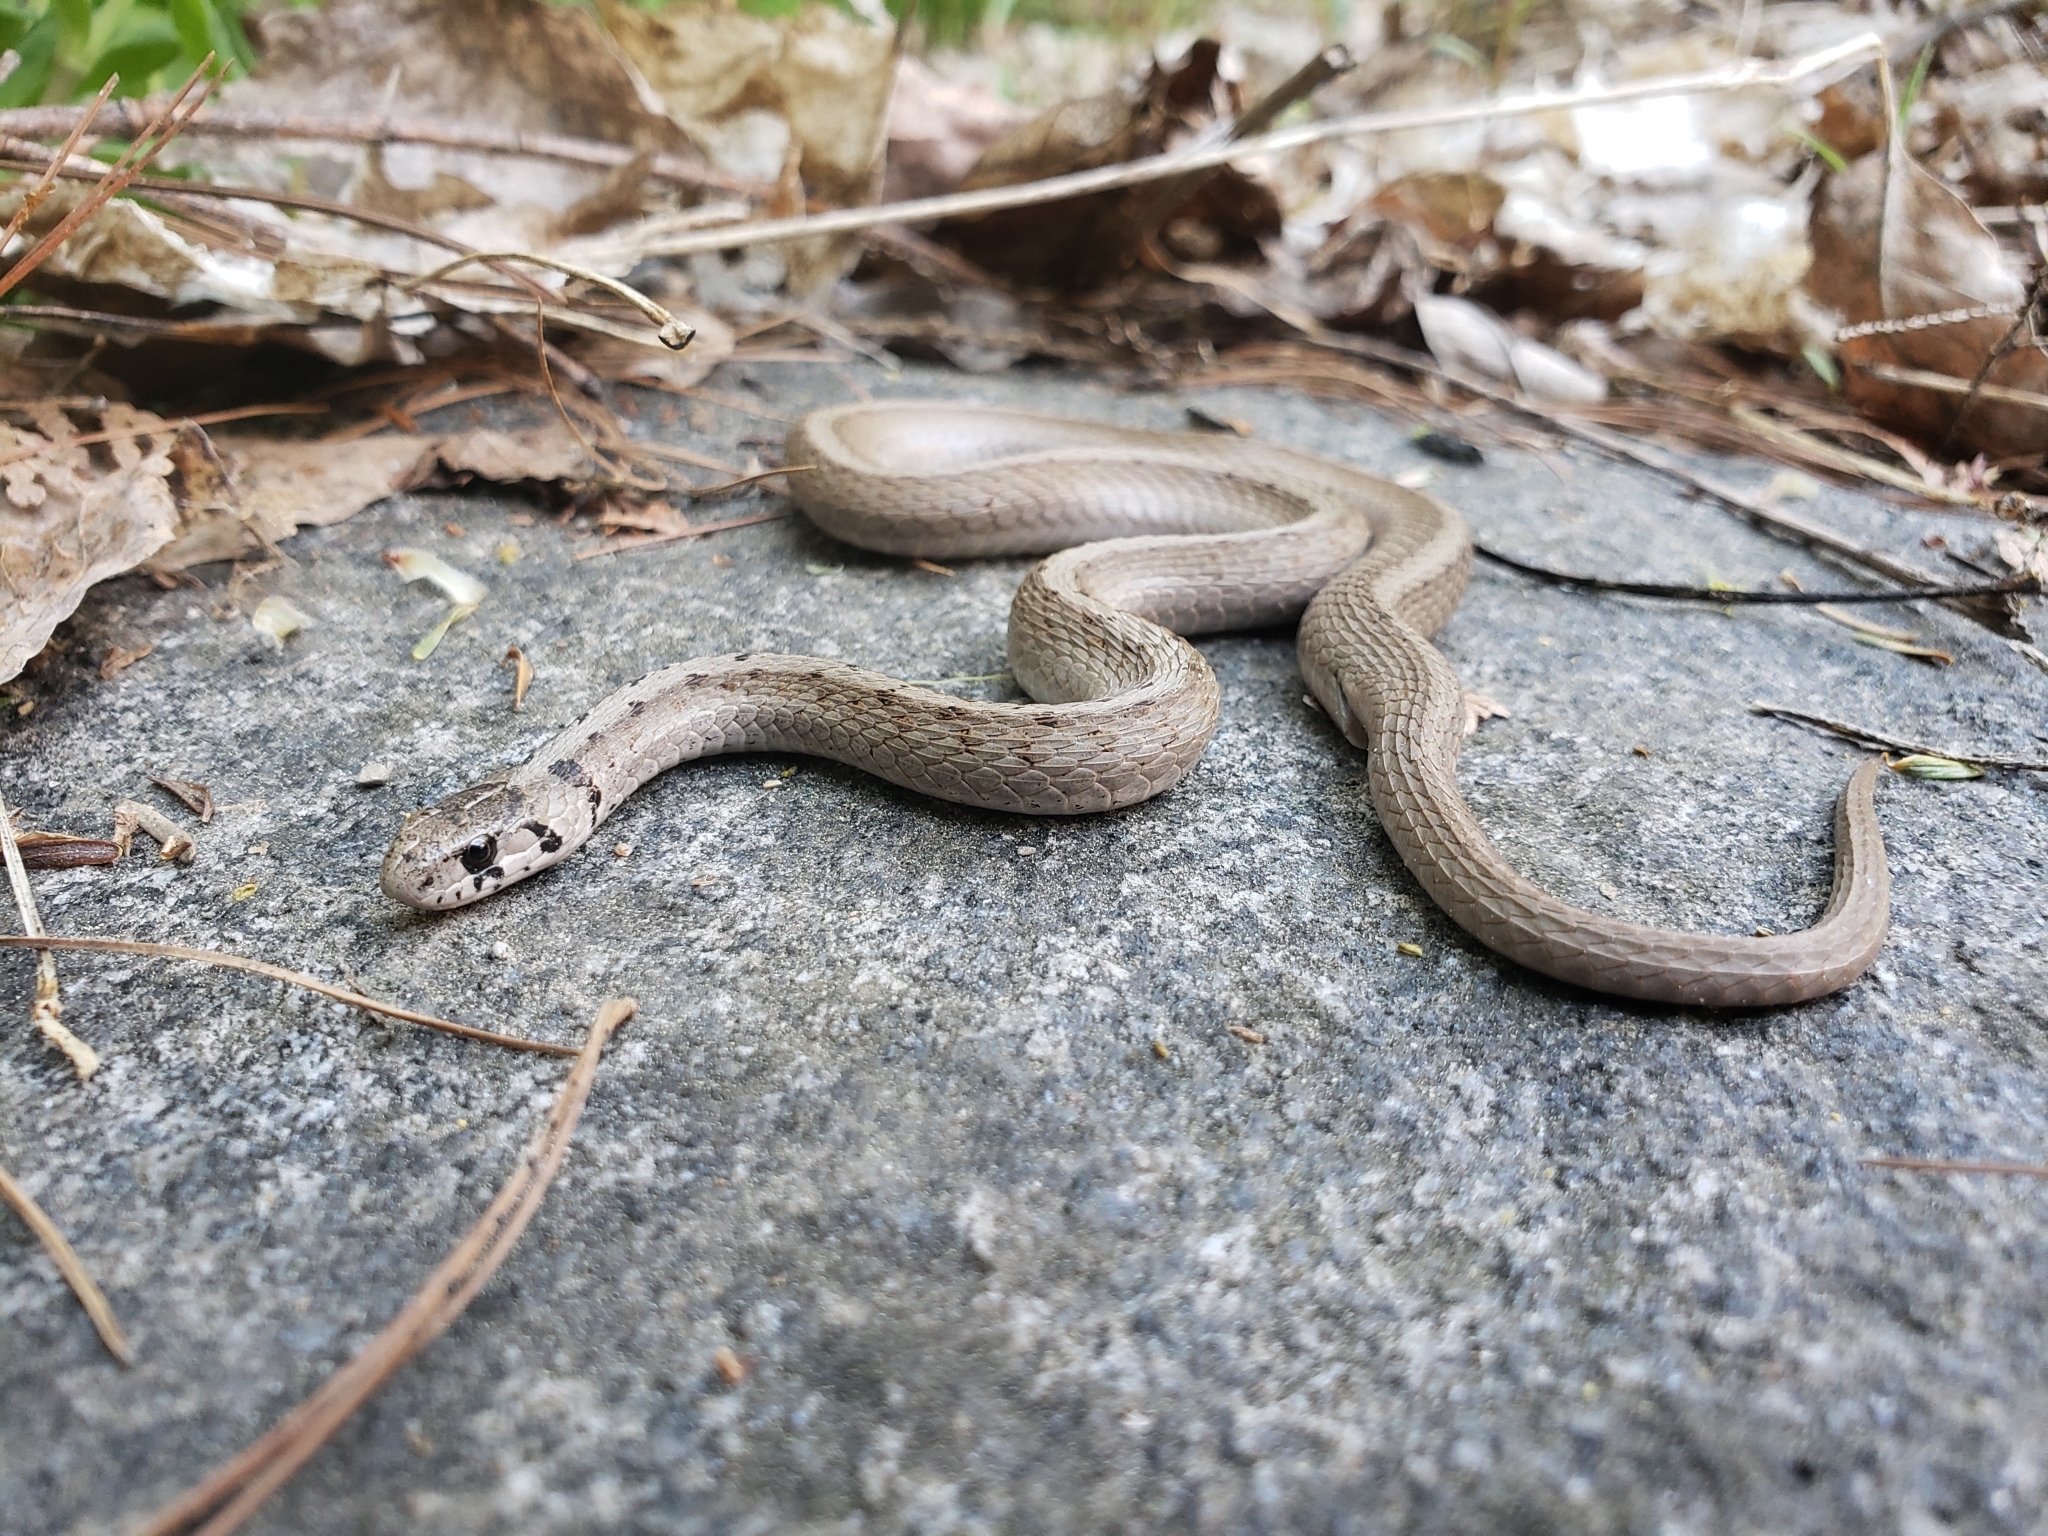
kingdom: Animalia
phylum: Chordata
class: Squamata
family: Colubridae
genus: Storeria
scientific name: Storeria dekayi
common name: (dekay’s) brown snake
